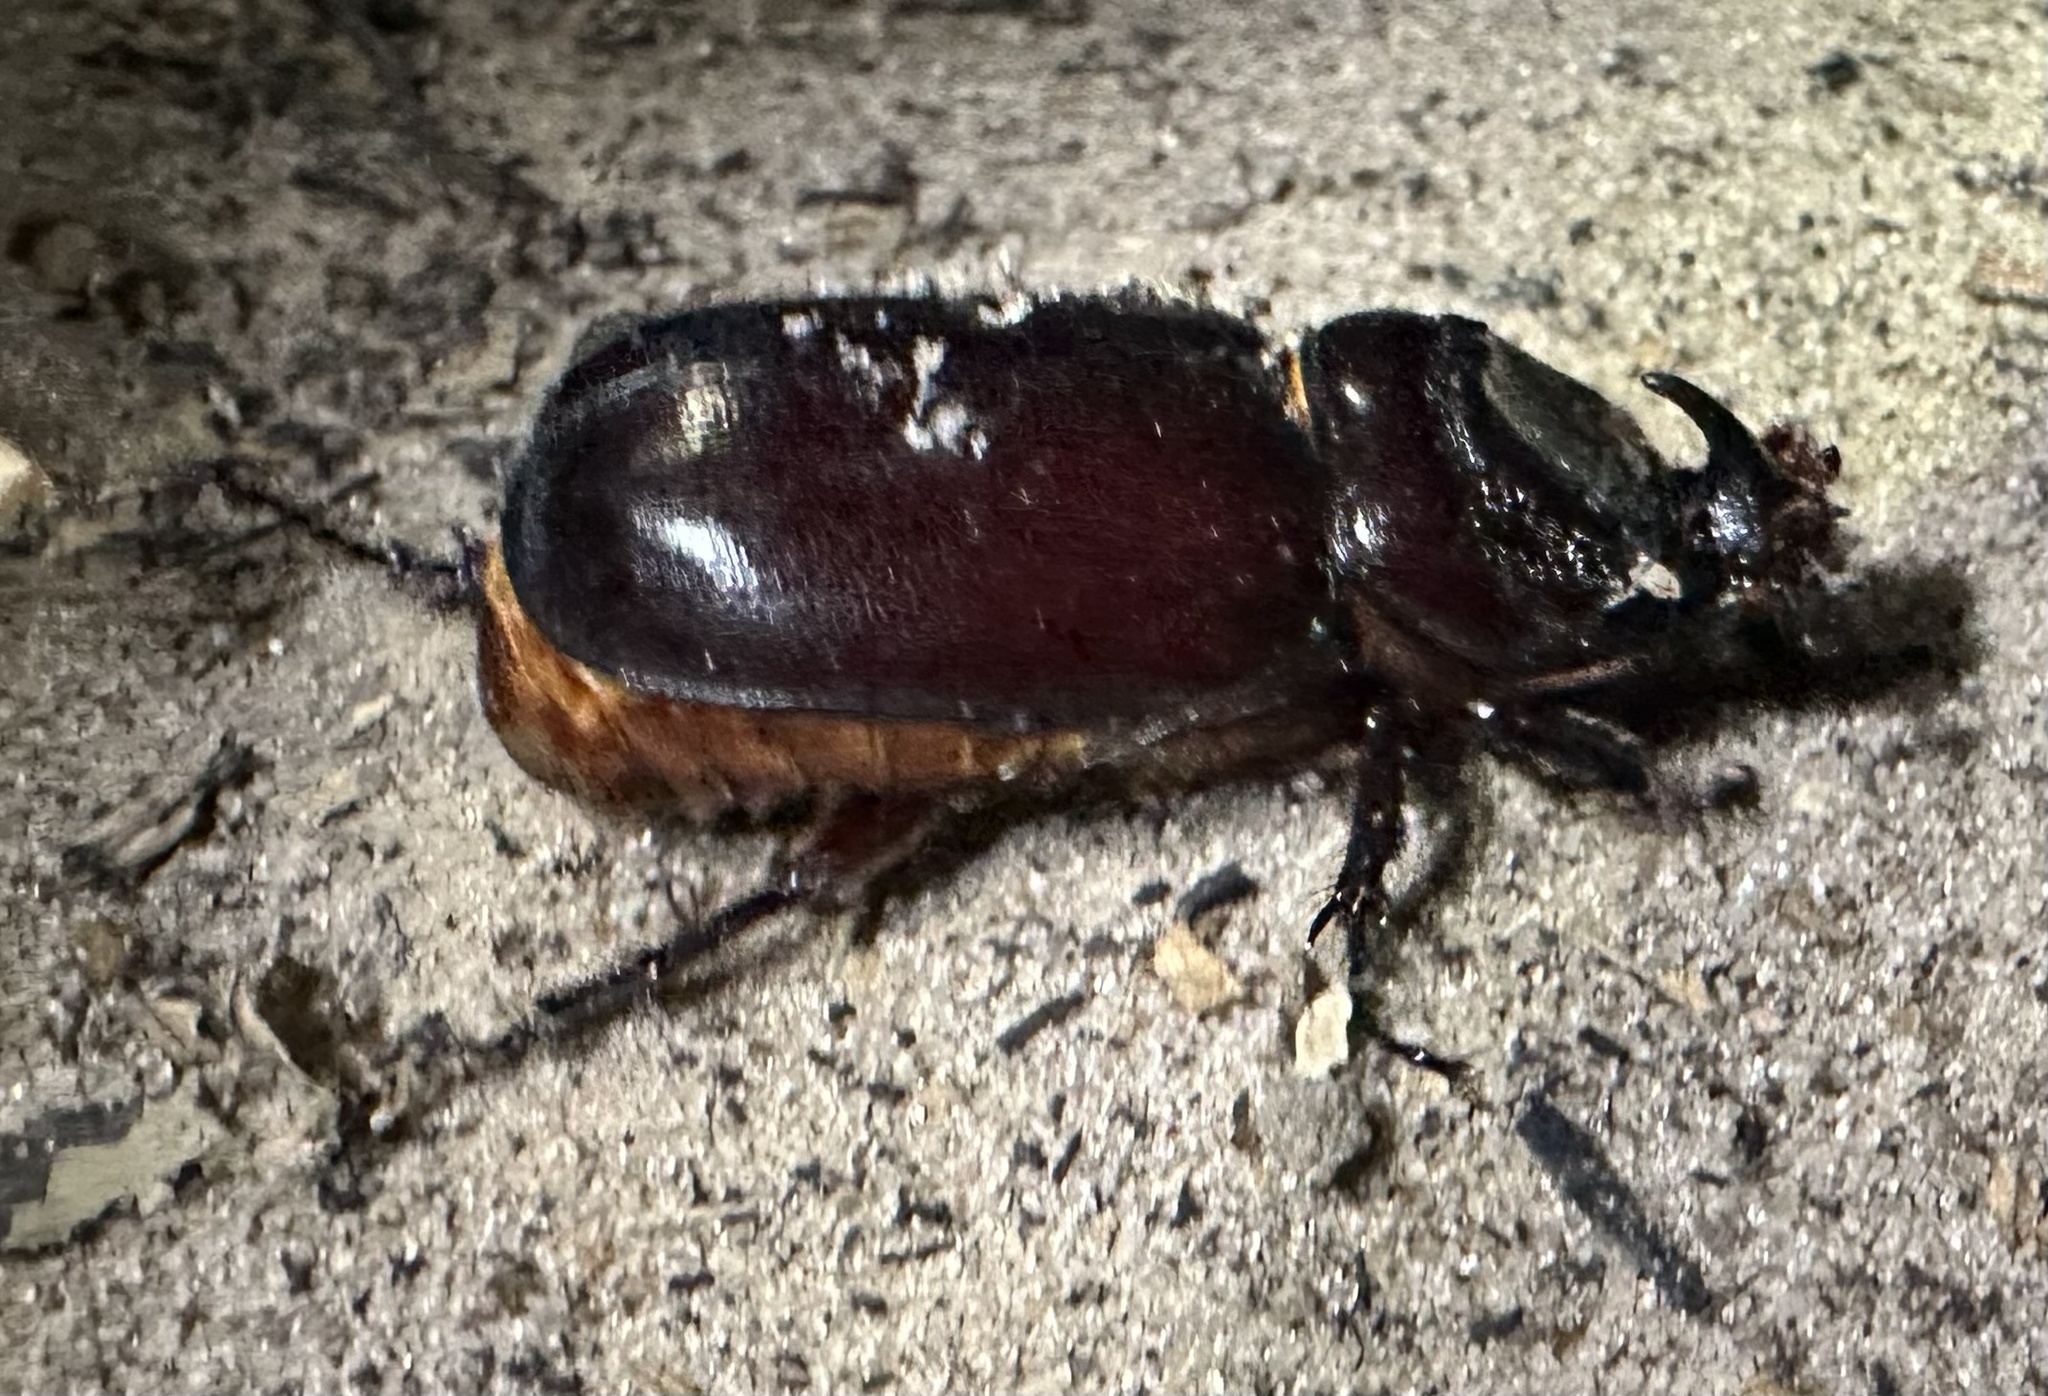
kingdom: Animalia
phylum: Arthropoda
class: Insecta
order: Coleoptera
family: Scarabaeidae
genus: Oryctes
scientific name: Oryctes monoceros
